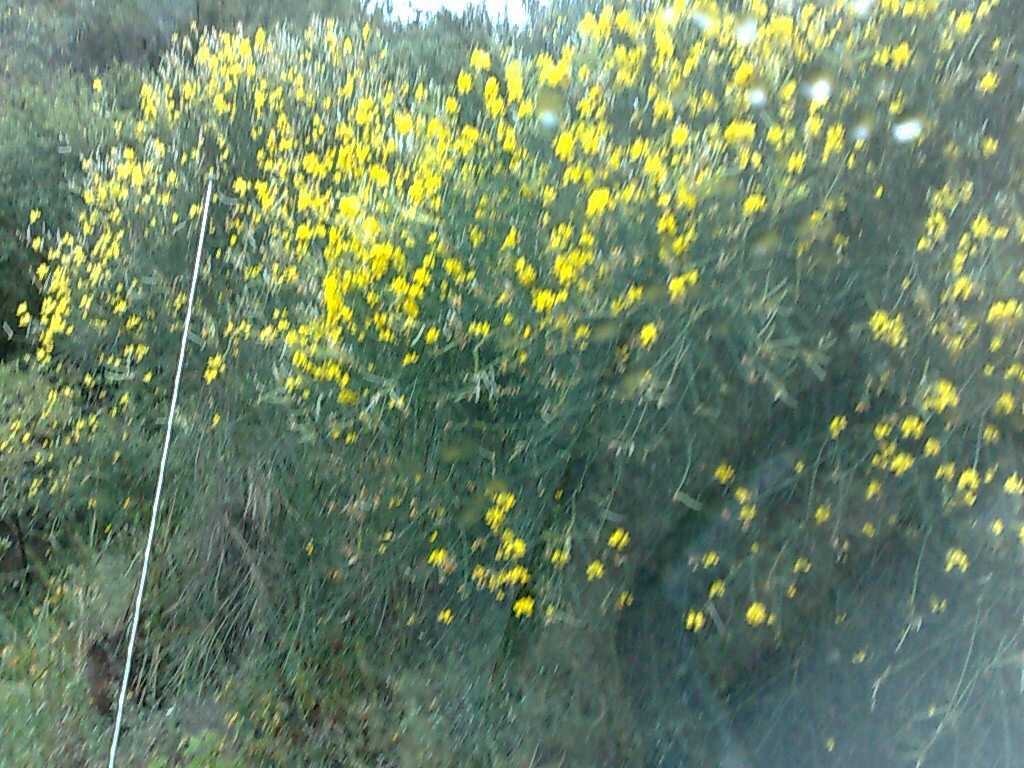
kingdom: Plantae
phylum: Tracheophyta
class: Magnoliopsida
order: Fabales
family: Fabaceae
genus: Spartium
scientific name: Spartium junceum
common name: Spanish broom
